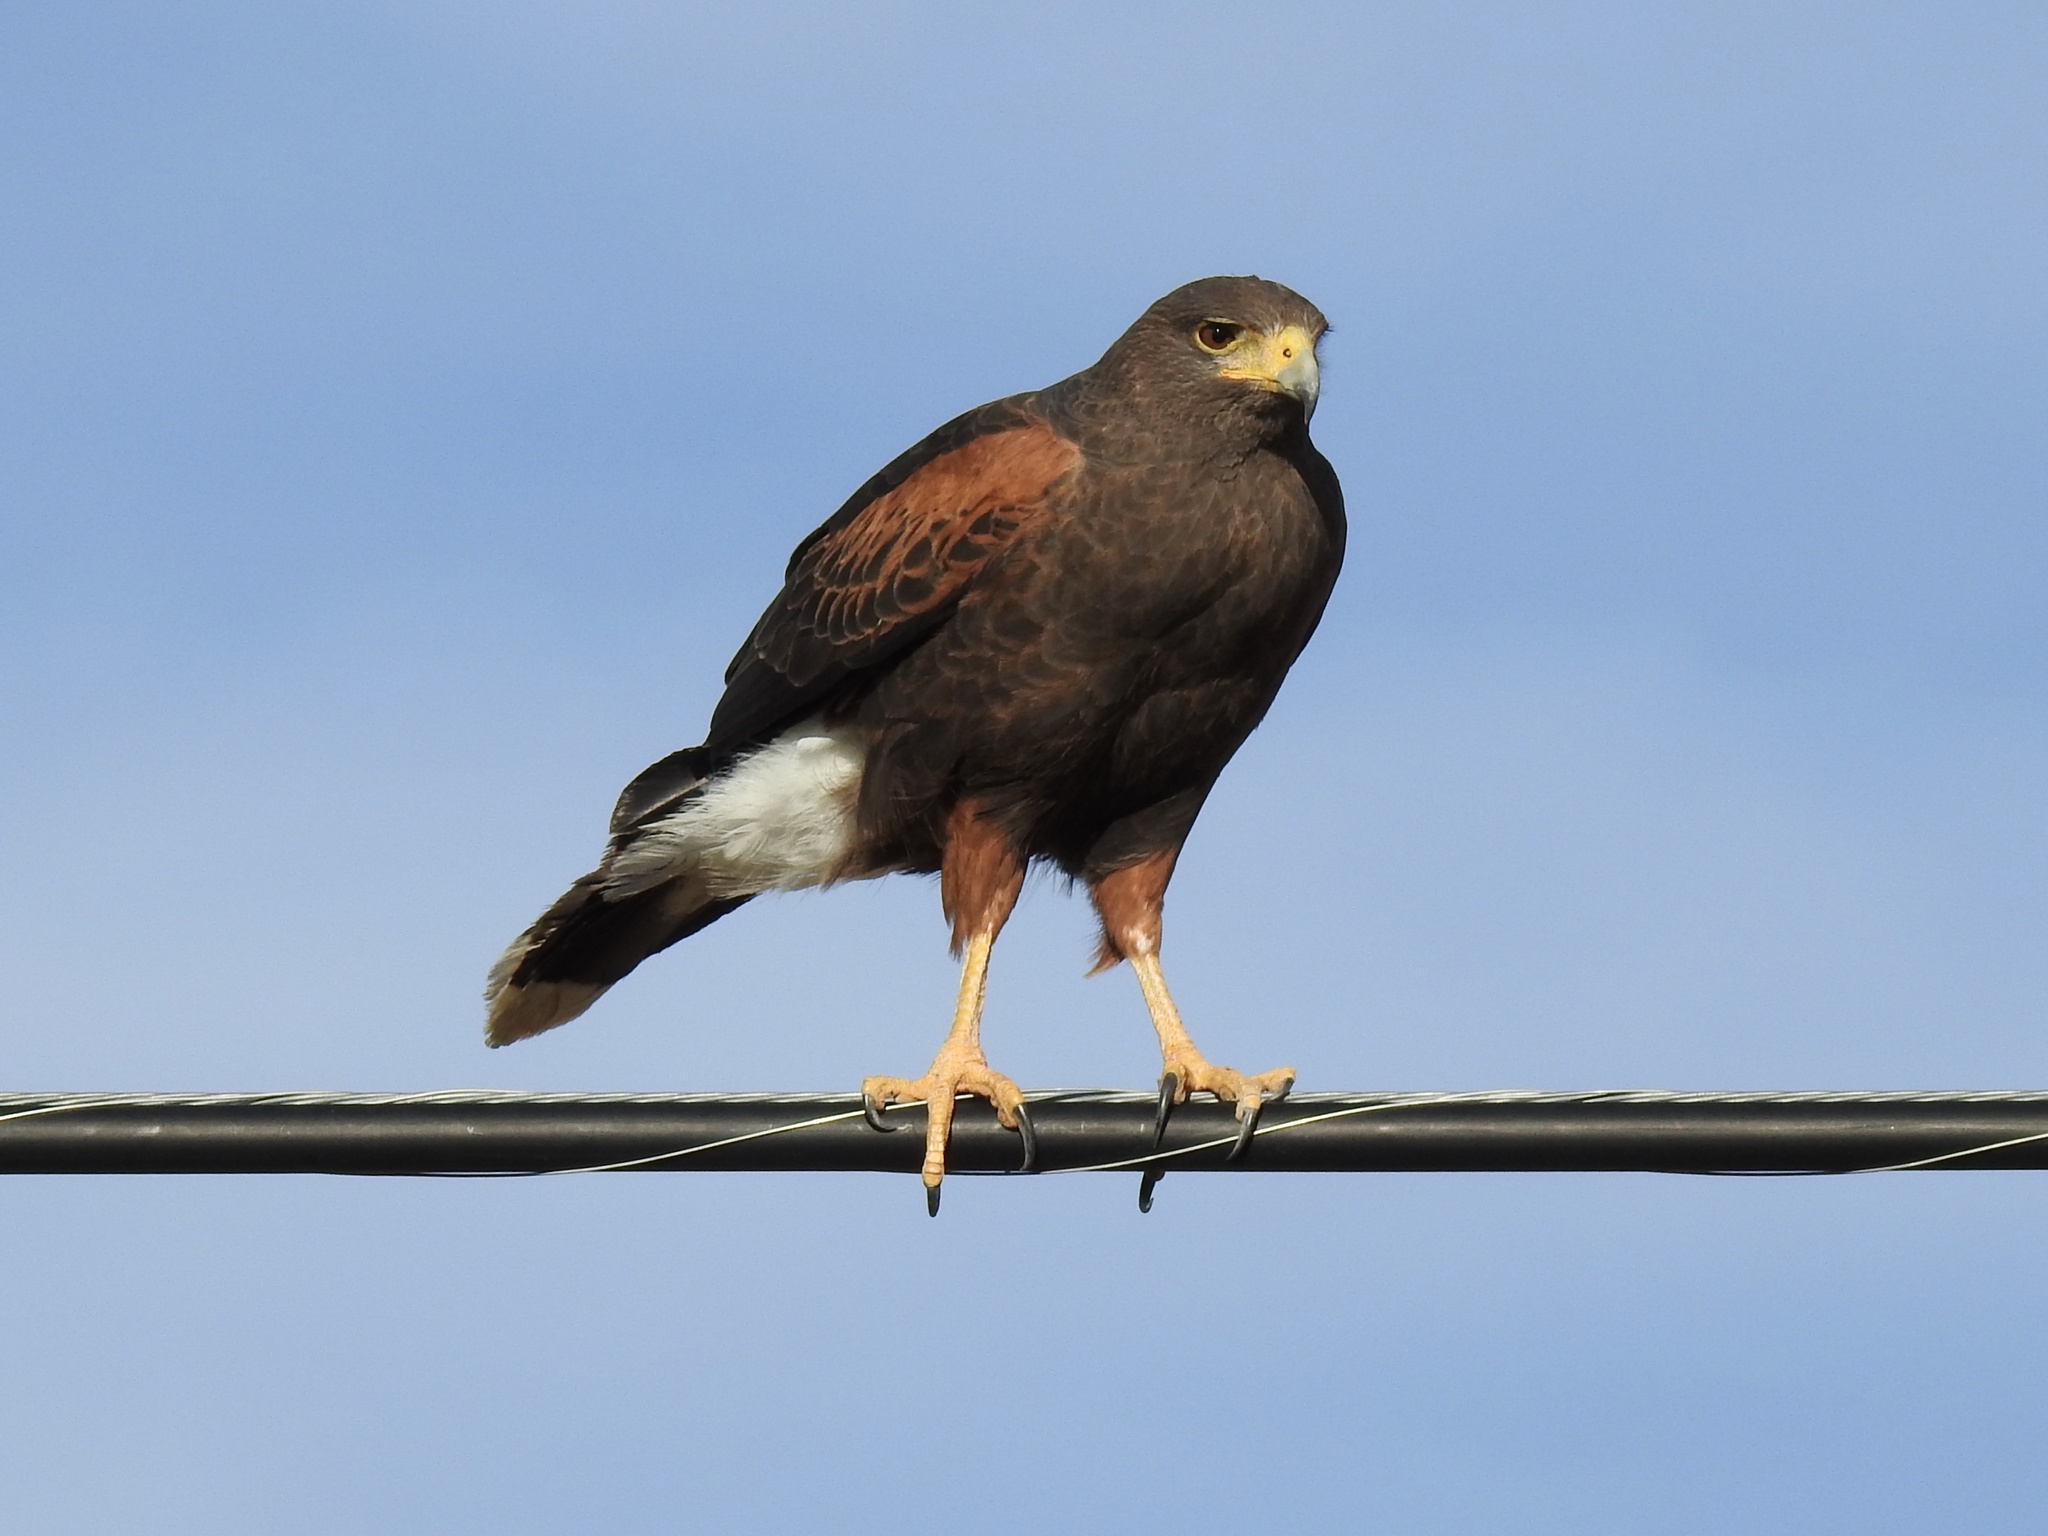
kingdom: Animalia
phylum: Chordata
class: Aves
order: Accipitriformes
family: Accipitridae
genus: Parabuteo
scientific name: Parabuteo unicinctus
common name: Harris's hawk
